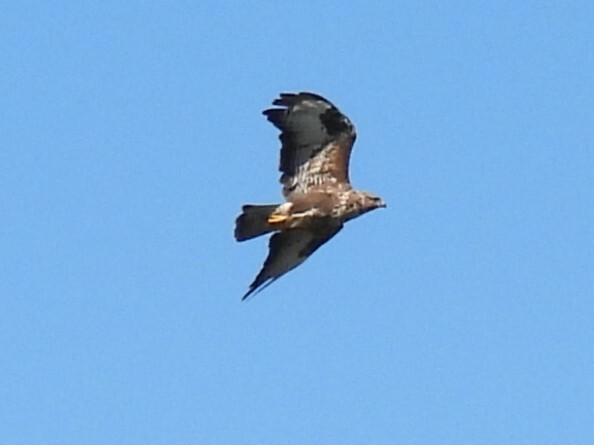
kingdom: Animalia
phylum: Chordata
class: Aves
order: Accipitriformes
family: Accipitridae
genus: Buteo
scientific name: Buteo buteo
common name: Common buzzard
